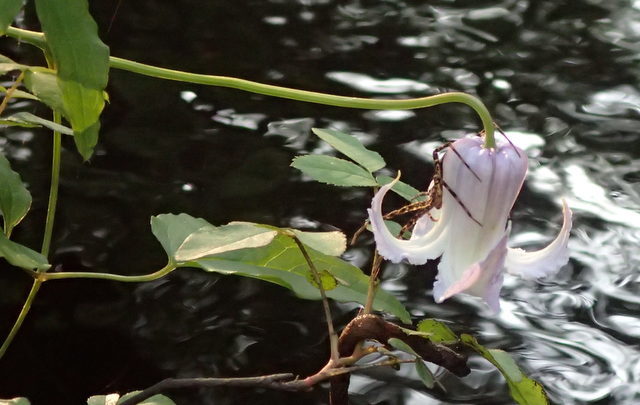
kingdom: Plantae
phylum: Tracheophyta
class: Magnoliopsida
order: Ranunculales
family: Ranunculaceae
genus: Clematis
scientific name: Clematis crispa
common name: Curly clematis
